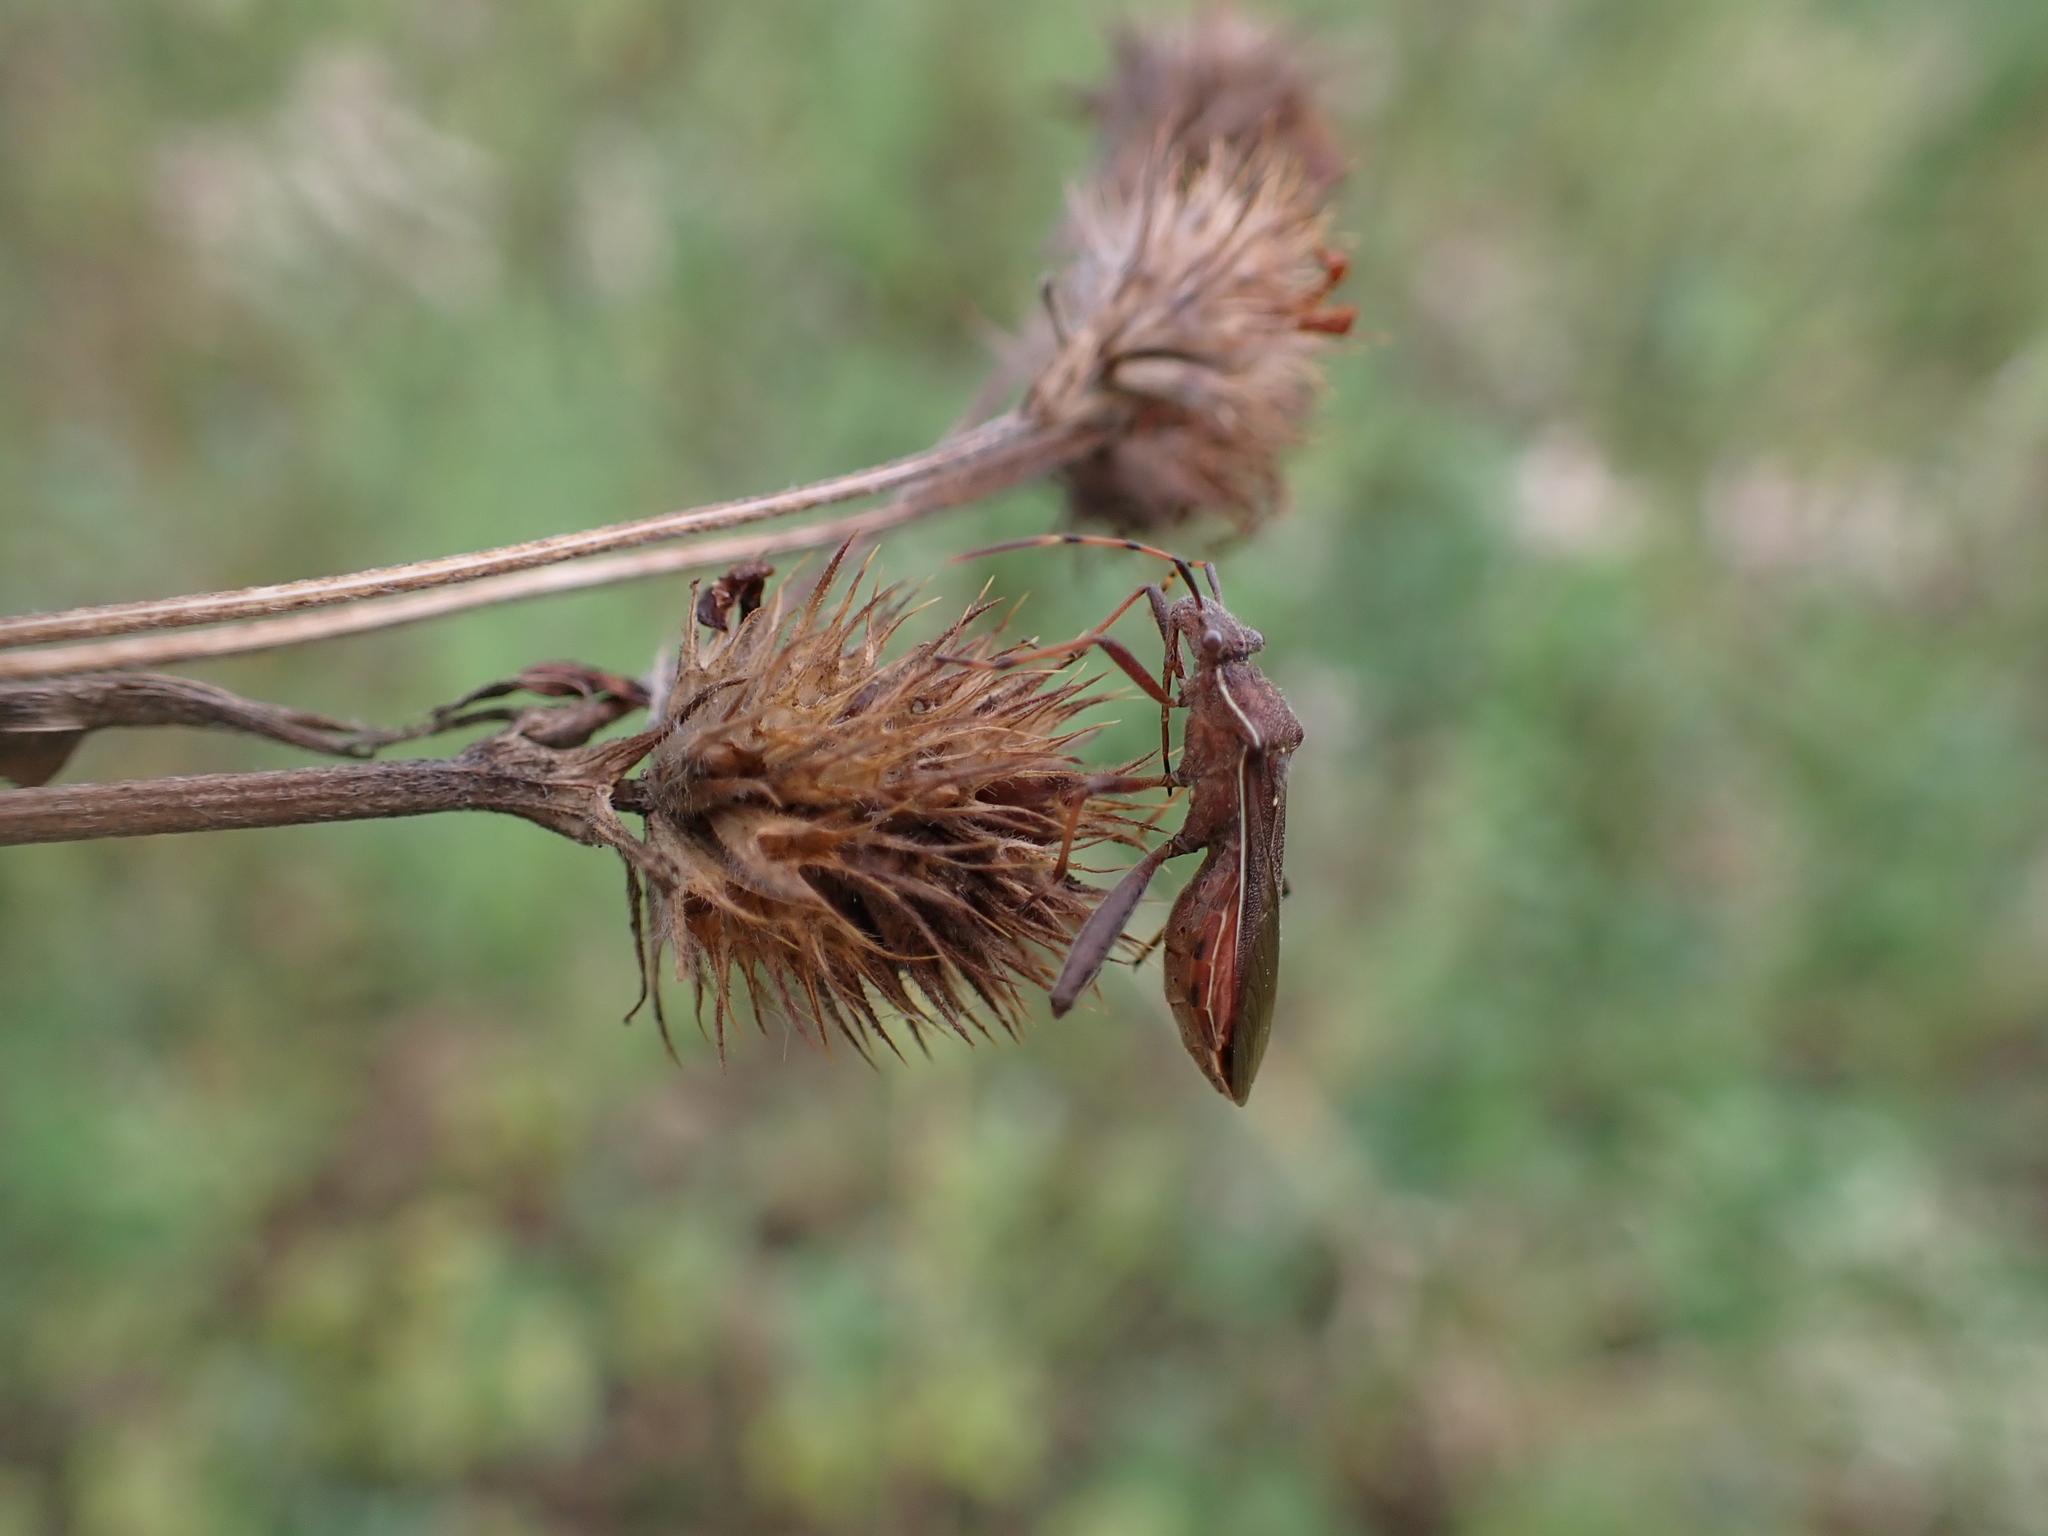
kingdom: Animalia
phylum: Arthropoda
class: Insecta
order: Hemiptera
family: Alydidae
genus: Camptopus
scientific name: Camptopus lateralis
